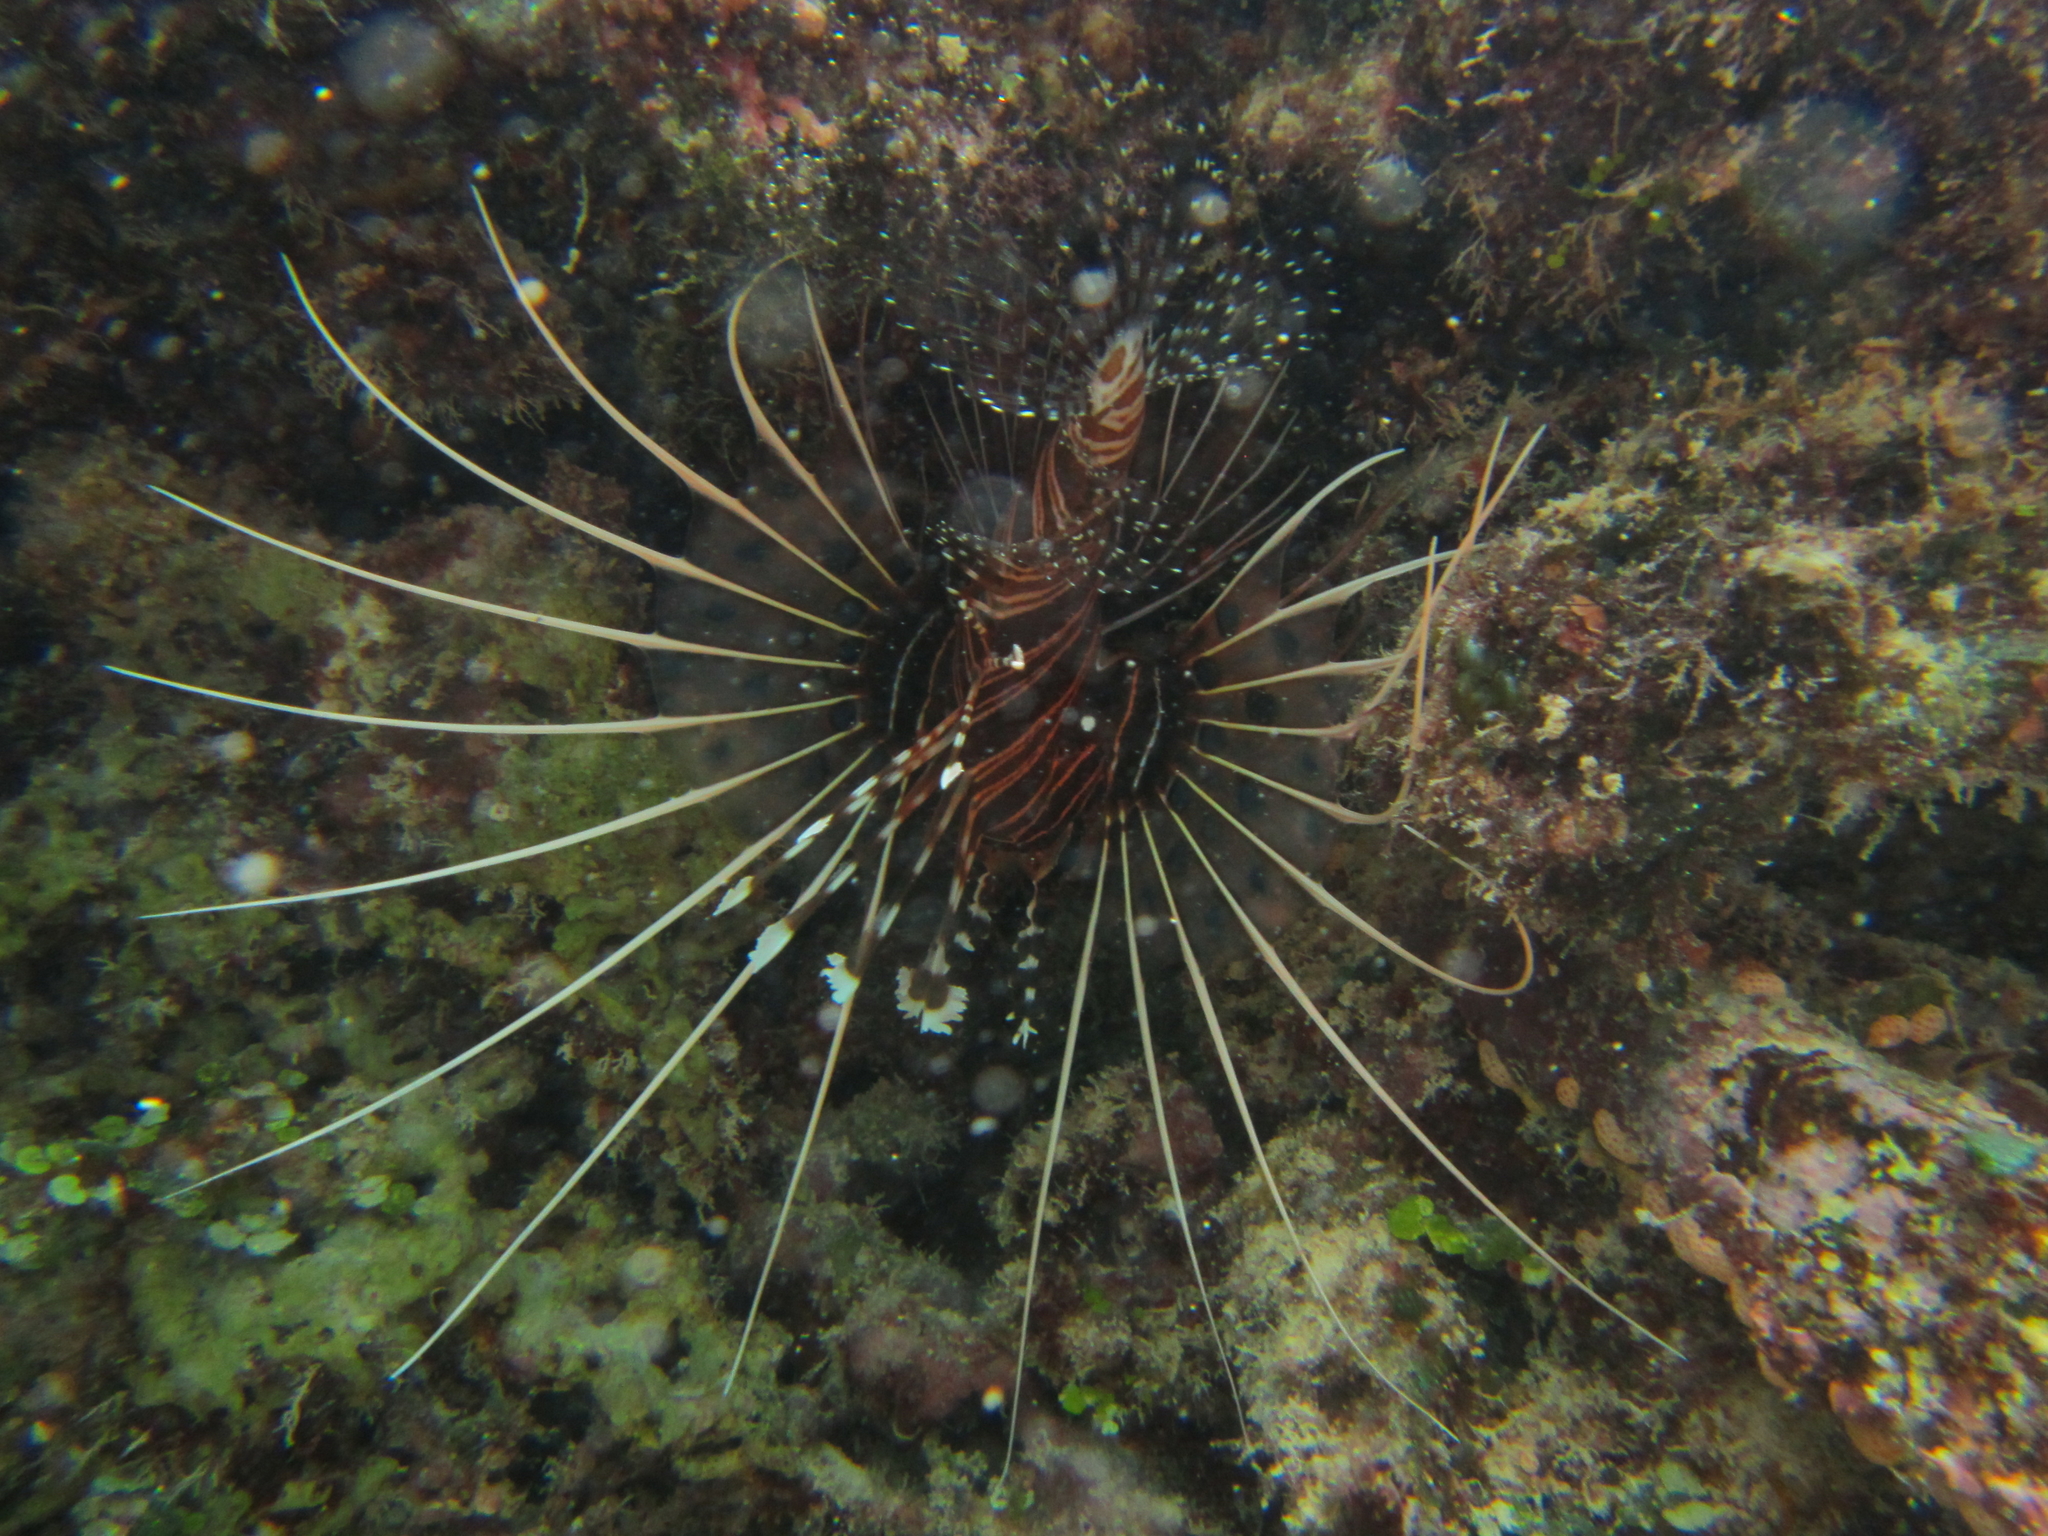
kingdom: Animalia
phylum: Chordata
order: Scorpaeniformes
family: Scorpaenidae
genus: Pterois
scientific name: Pterois antennata
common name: Spotfin lionfish
